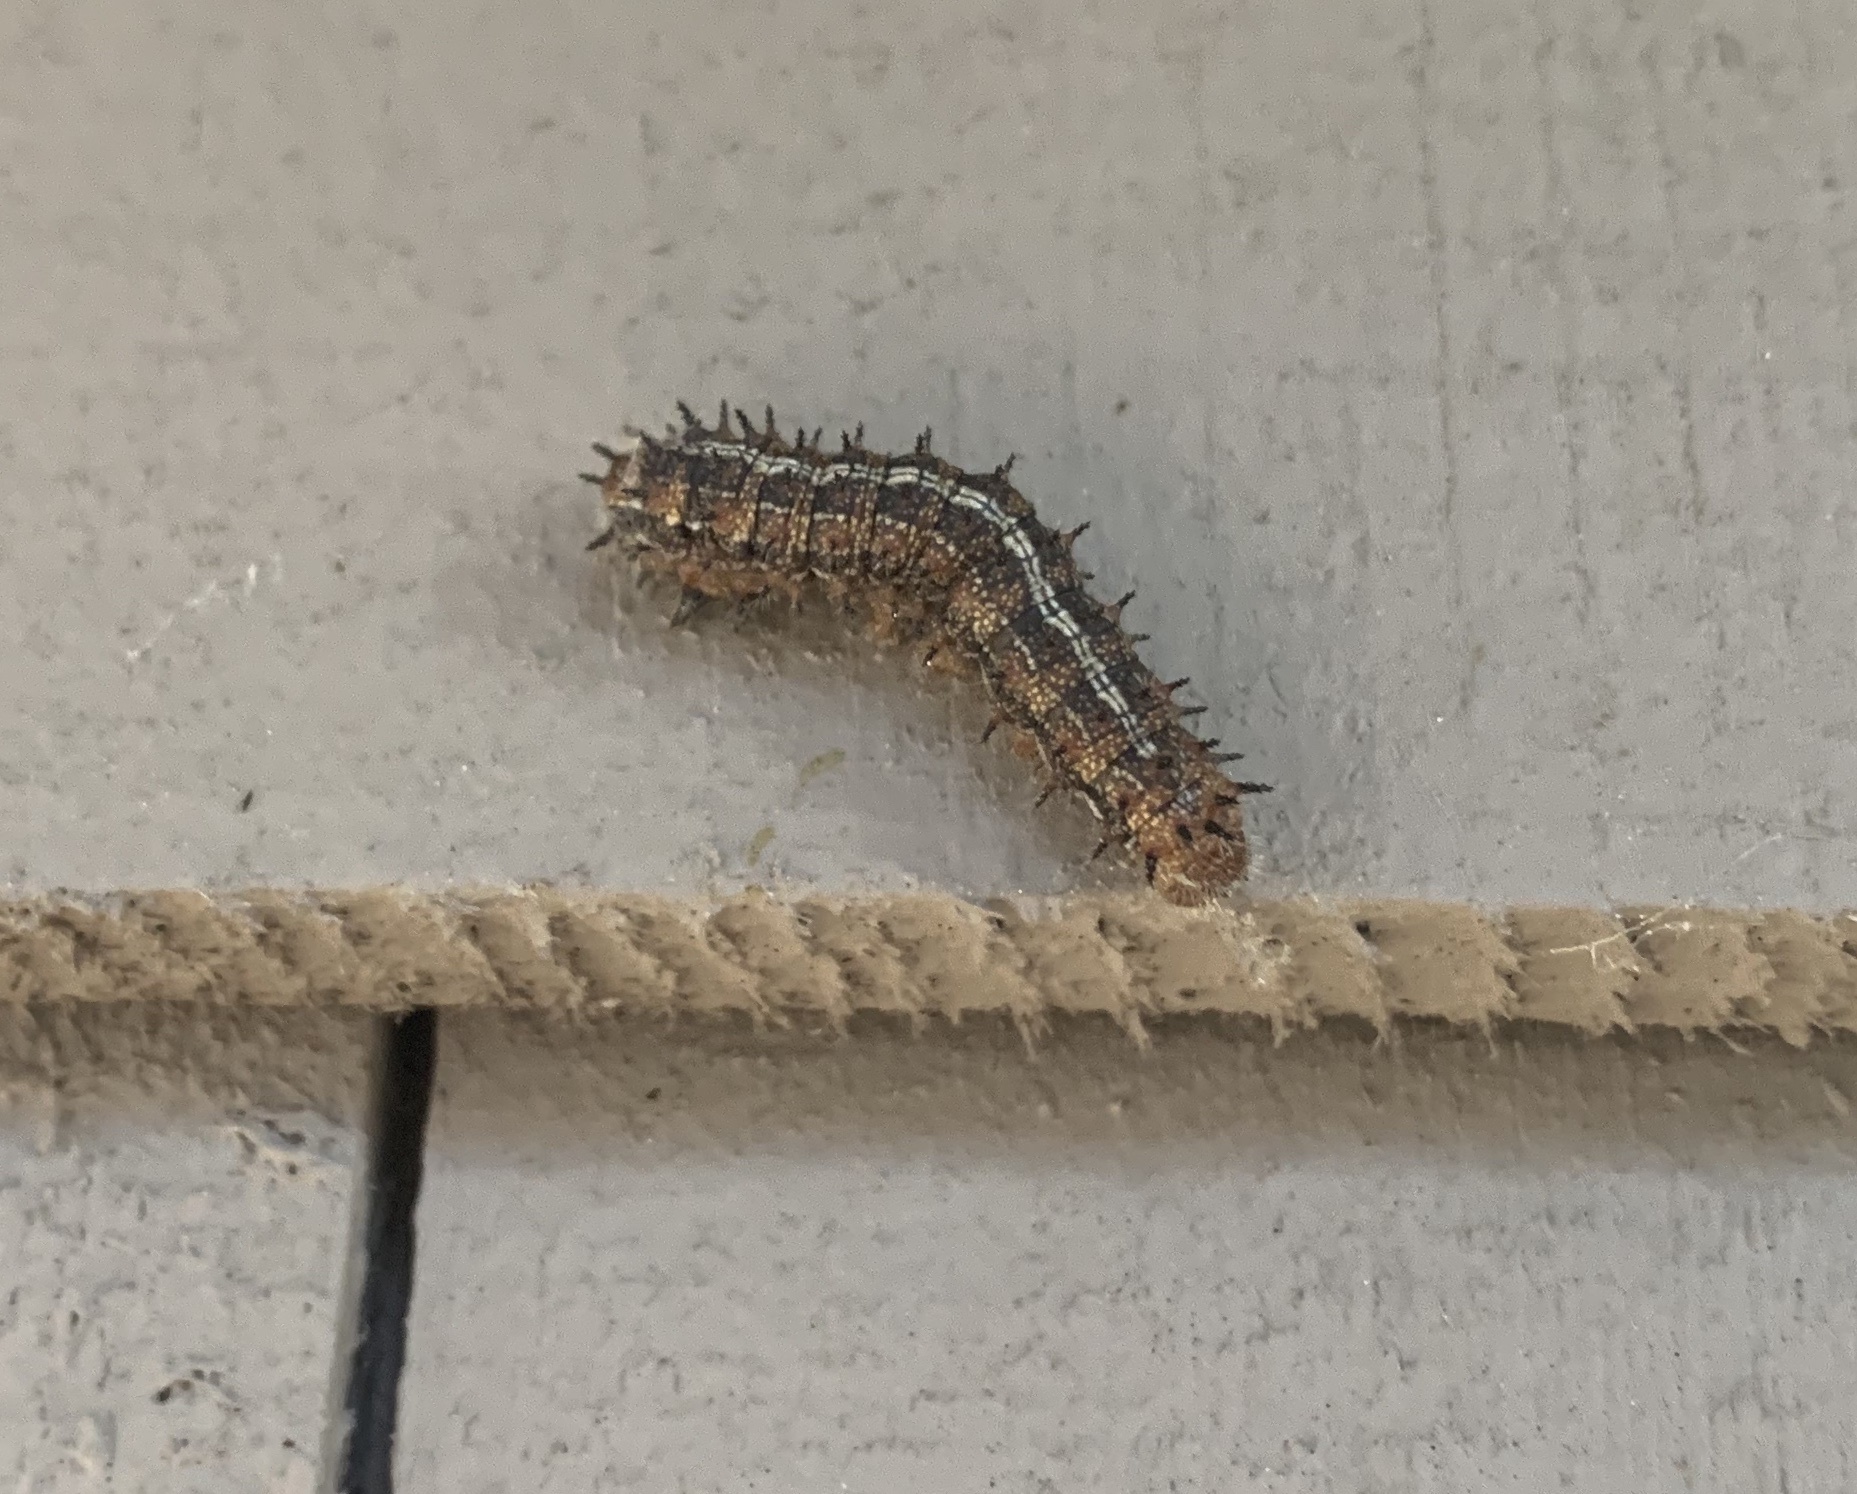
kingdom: Animalia
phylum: Arthropoda
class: Insecta
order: Lepidoptera
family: Saturniidae
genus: Coloradia
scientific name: Coloradia pandora
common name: Pandora pinemoth
